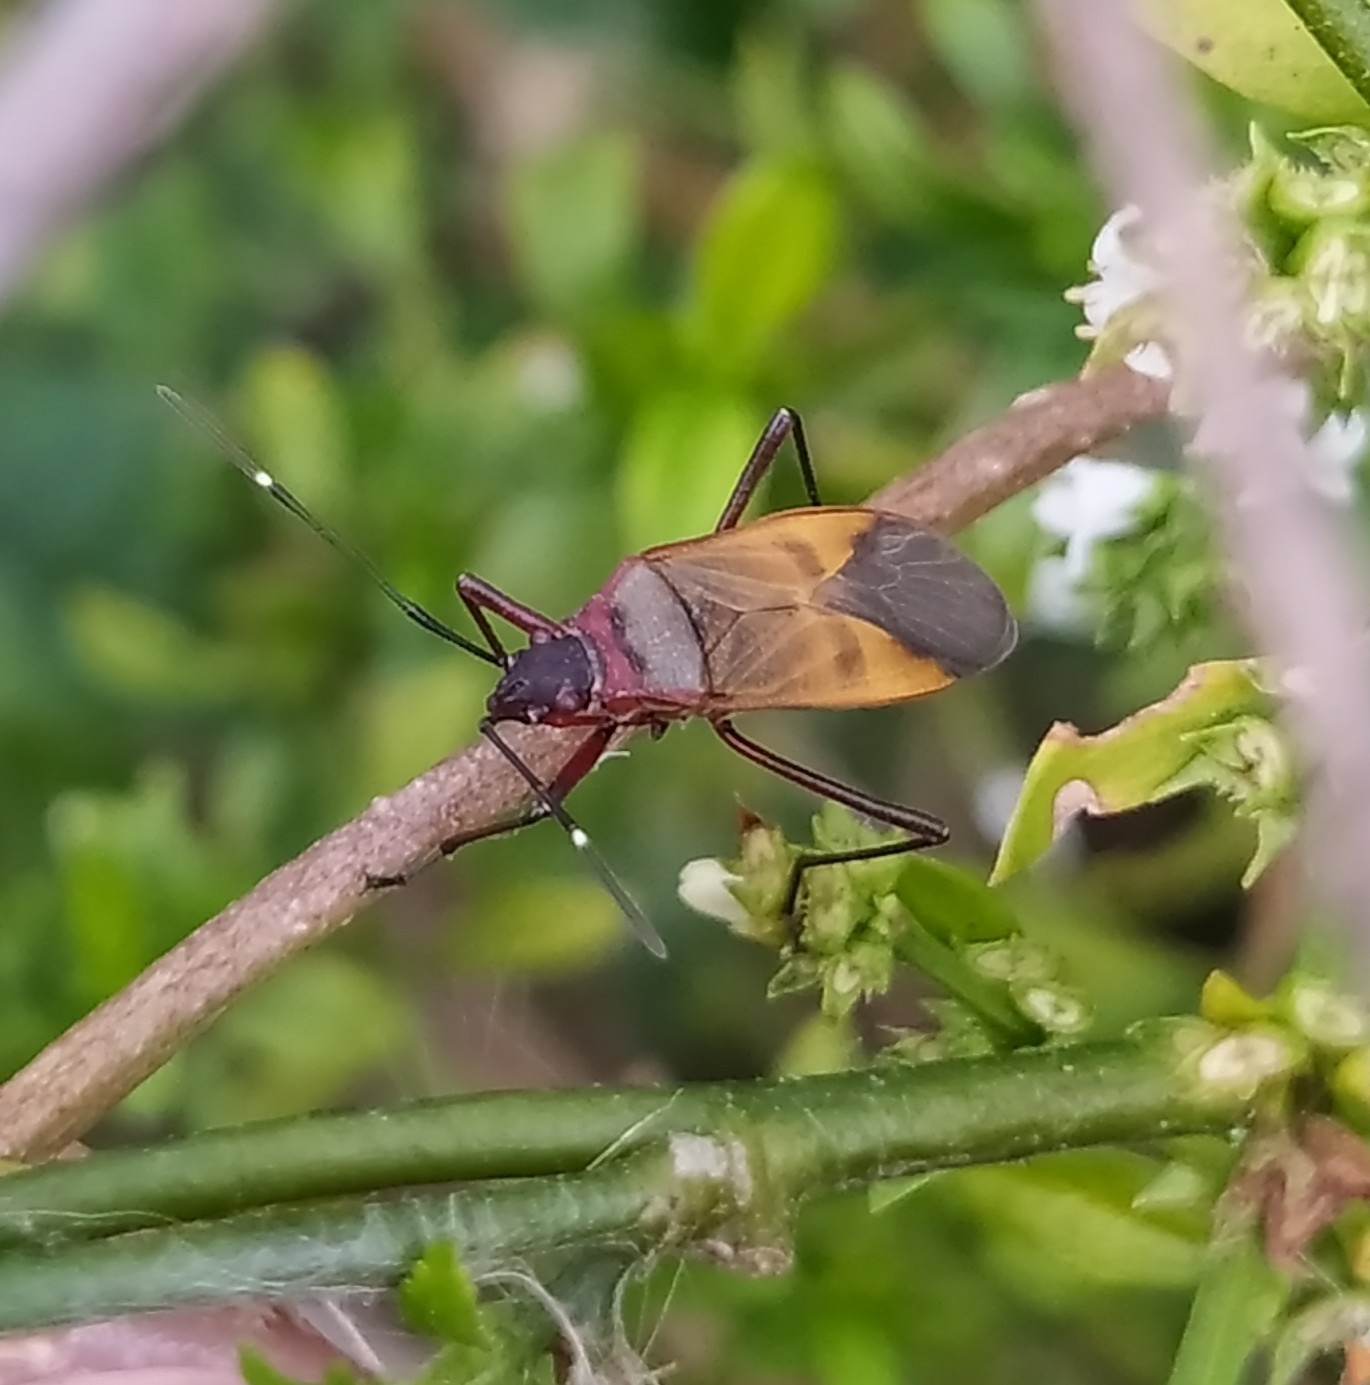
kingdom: Animalia
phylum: Arthropoda
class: Insecta
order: Hemiptera
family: Pyrrhocoridae
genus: Dysdercus
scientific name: Dysdercus
